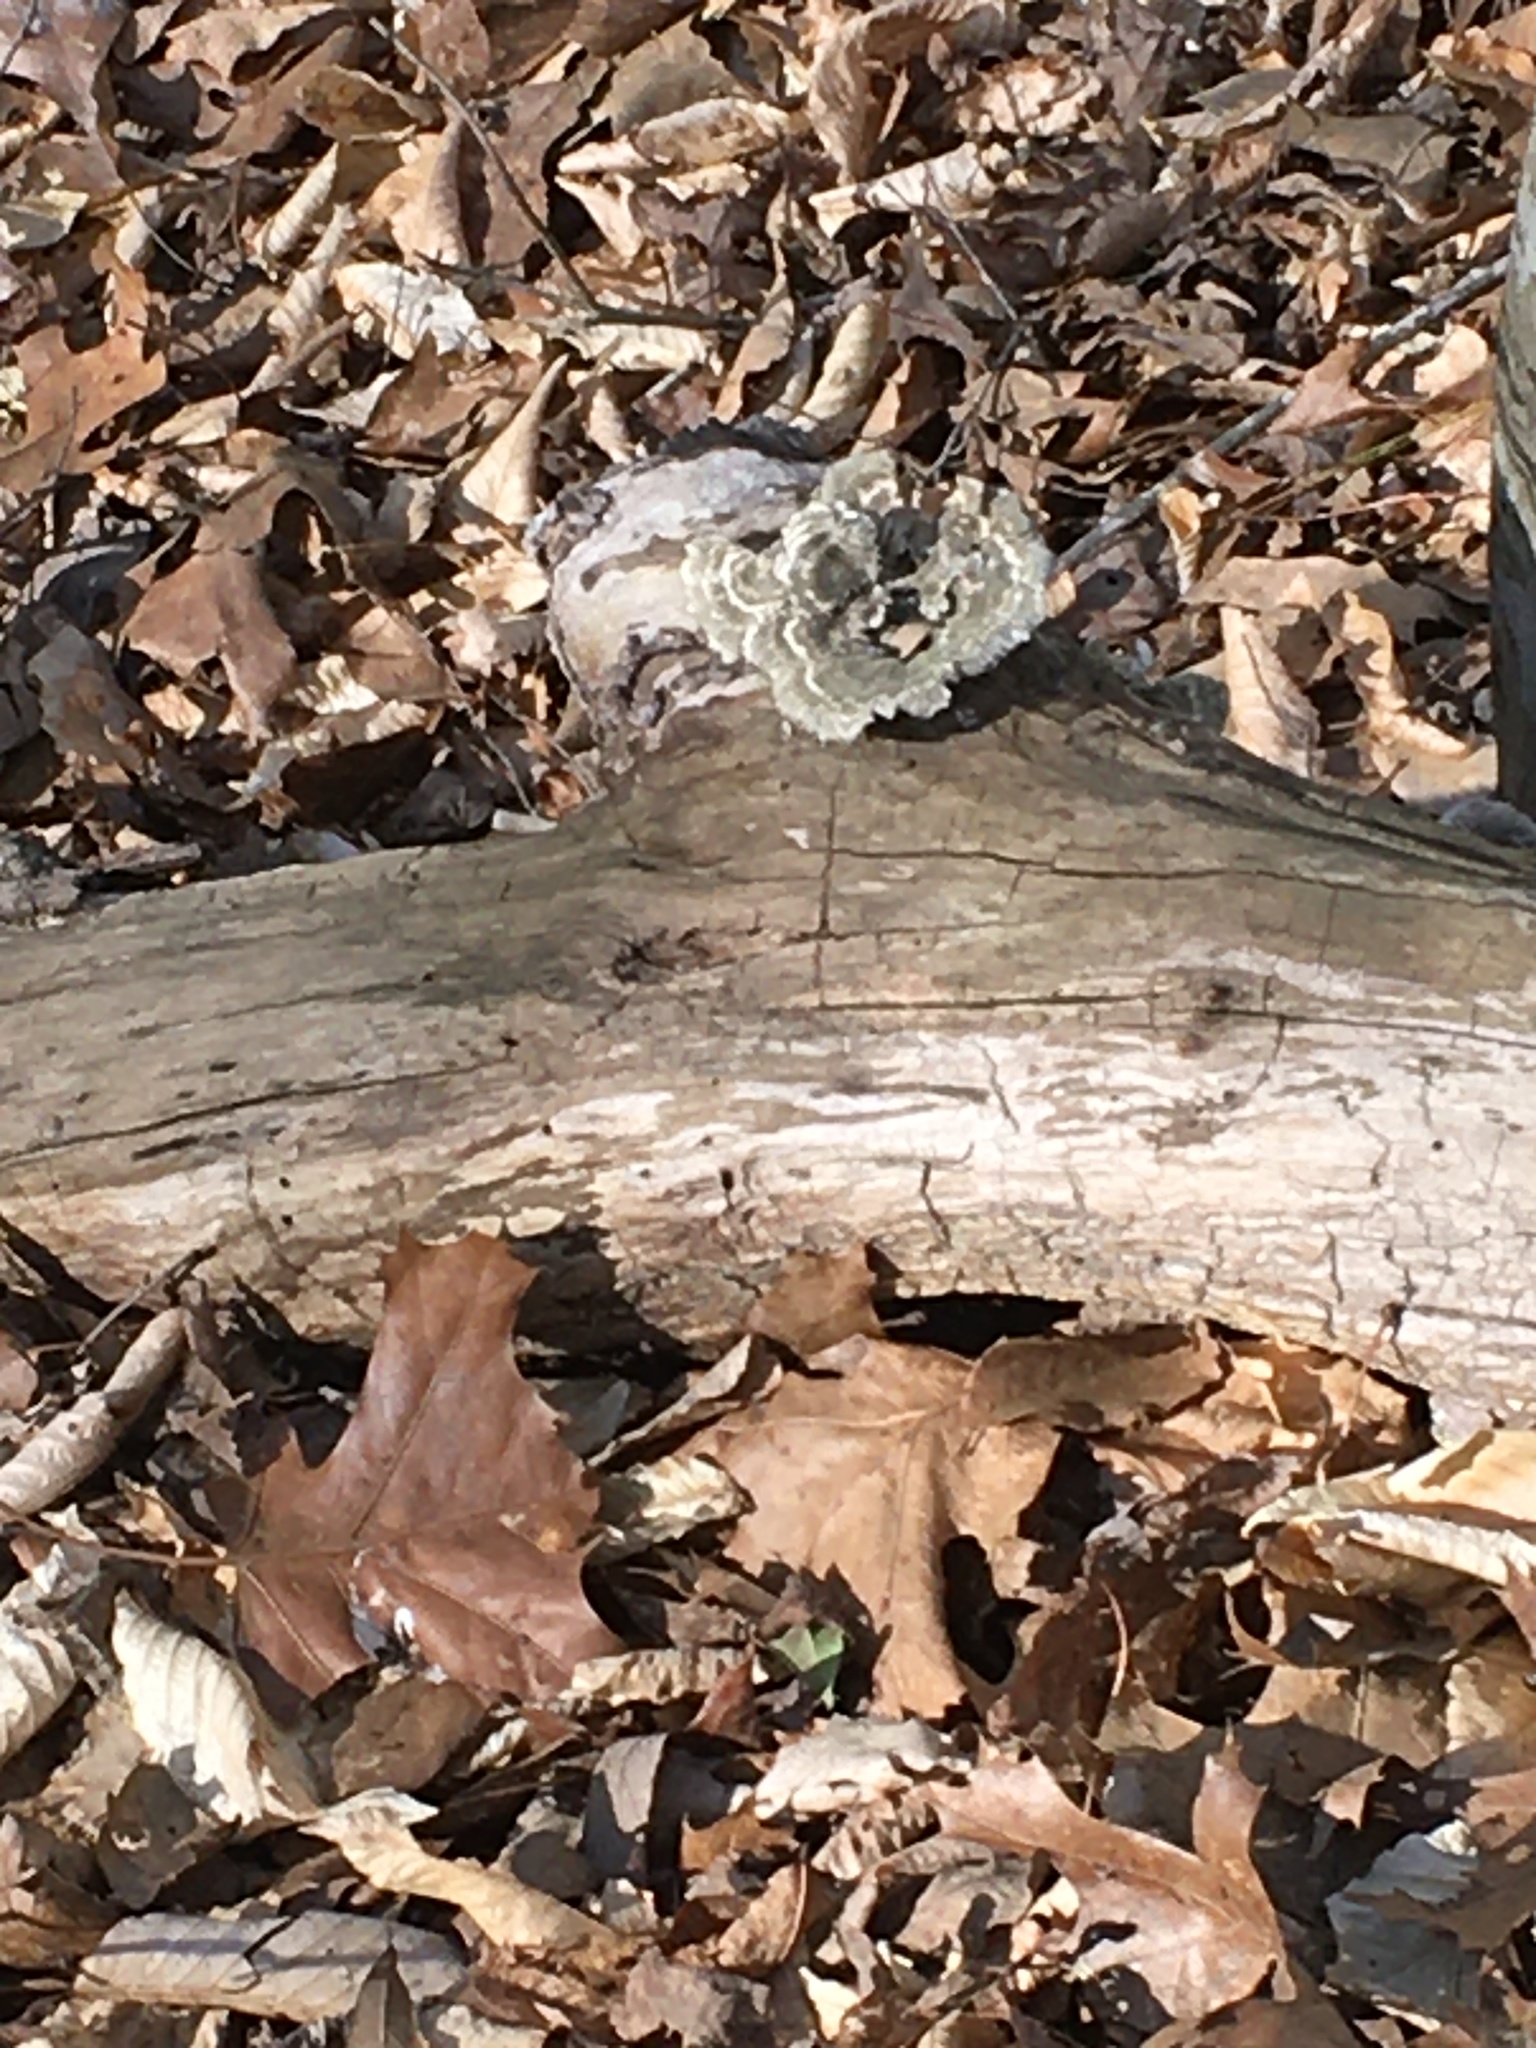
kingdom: Fungi
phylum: Basidiomycota
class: Agaricomycetes
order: Polyporales
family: Polyporaceae
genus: Trametes
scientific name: Trametes versicolor
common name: Turkeytail
